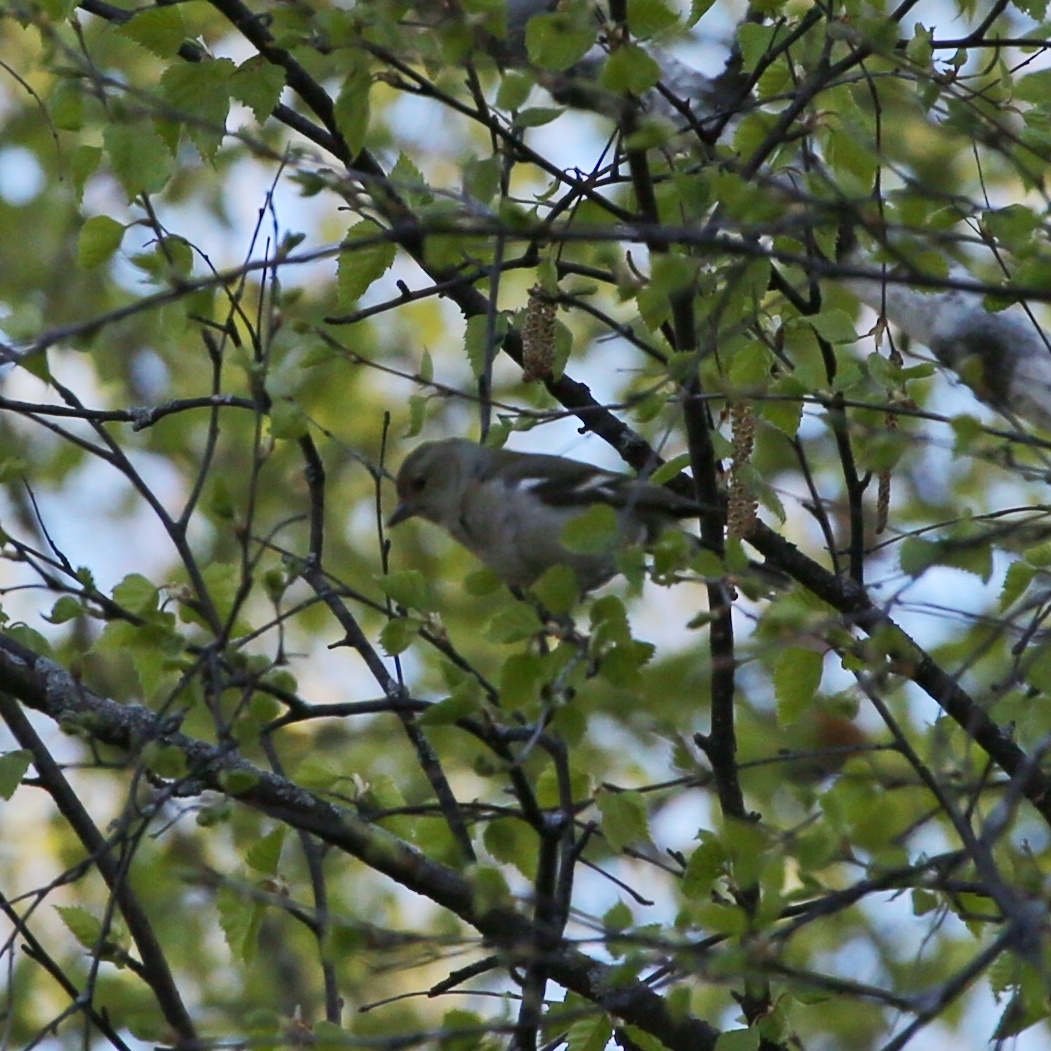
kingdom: Animalia
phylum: Chordata
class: Aves
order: Passeriformes
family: Fringillidae
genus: Fringilla
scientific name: Fringilla coelebs
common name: Common chaffinch
